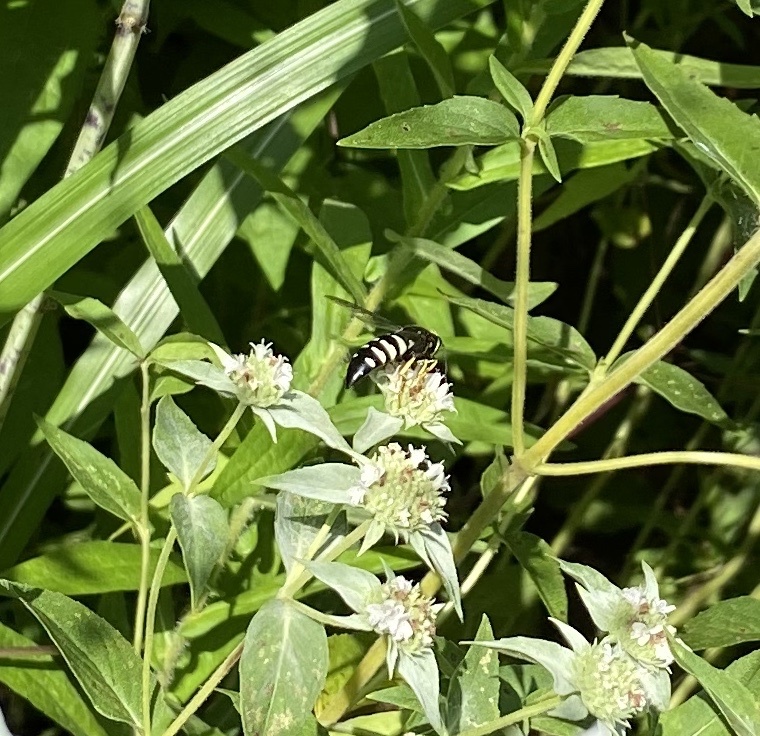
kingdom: Animalia
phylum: Arthropoda
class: Insecta
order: Hymenoptera
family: Crabronidae
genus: Bicyrtes
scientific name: Bicyrtes quadrifasciatus
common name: Four-banded stink bug hunter wasp
